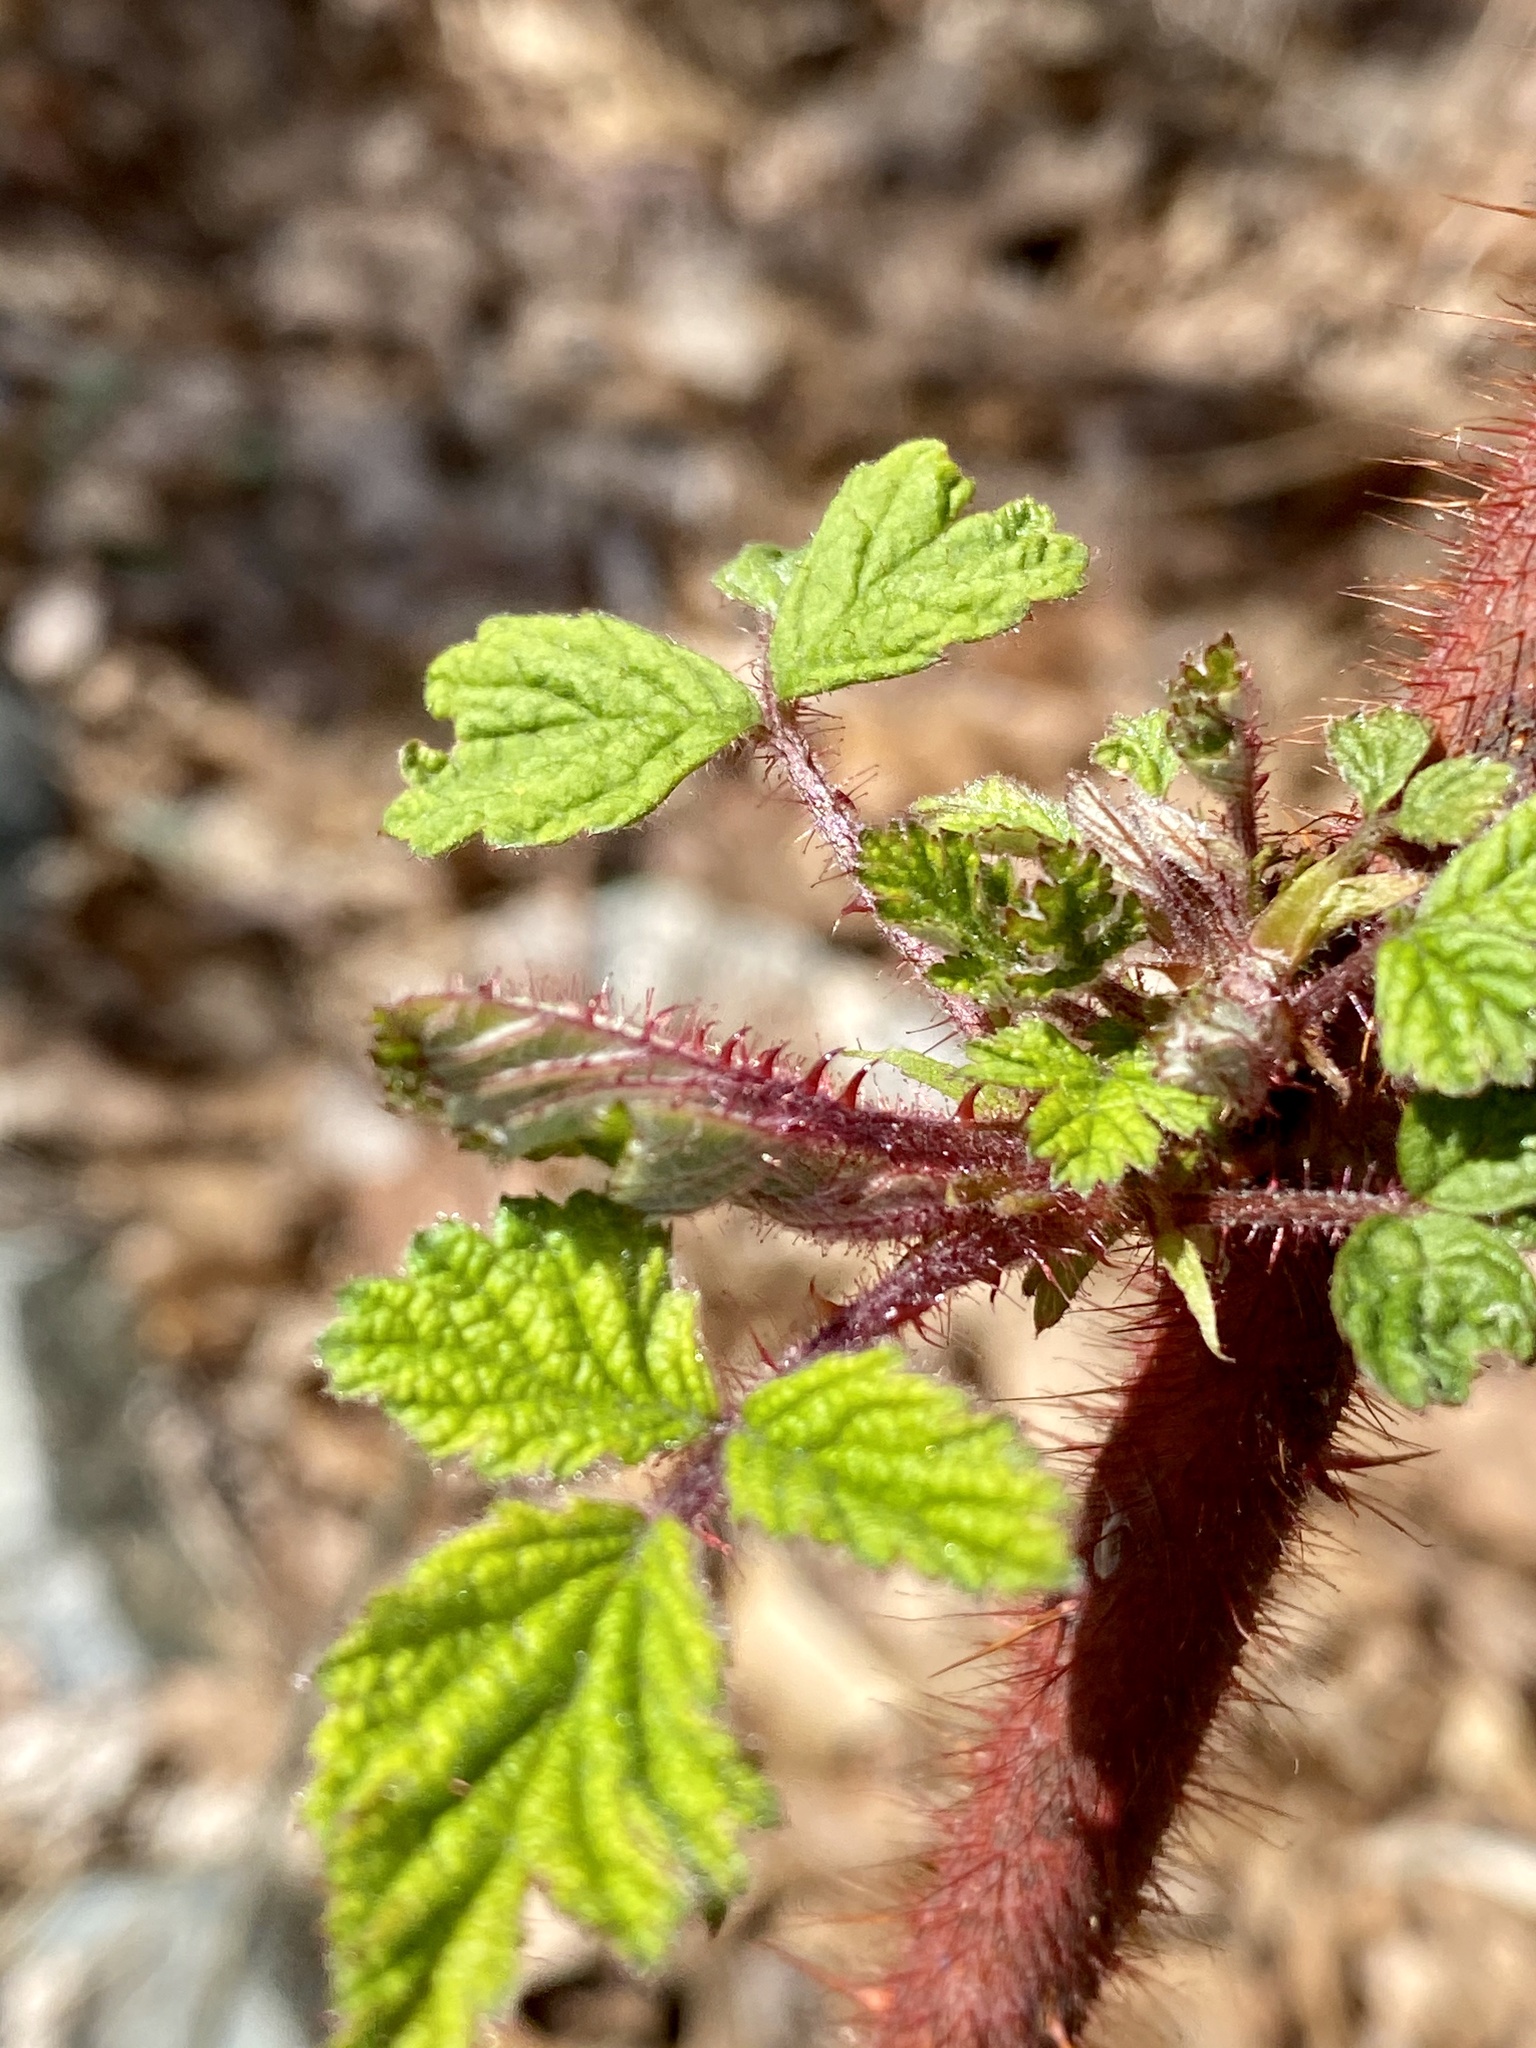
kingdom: Plantae
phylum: Tracheophyta
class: Magnoliopsida
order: Rosales
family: Rosaceae
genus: Rubus
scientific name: Rubus phoenicolasius
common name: Japanese wineberry
